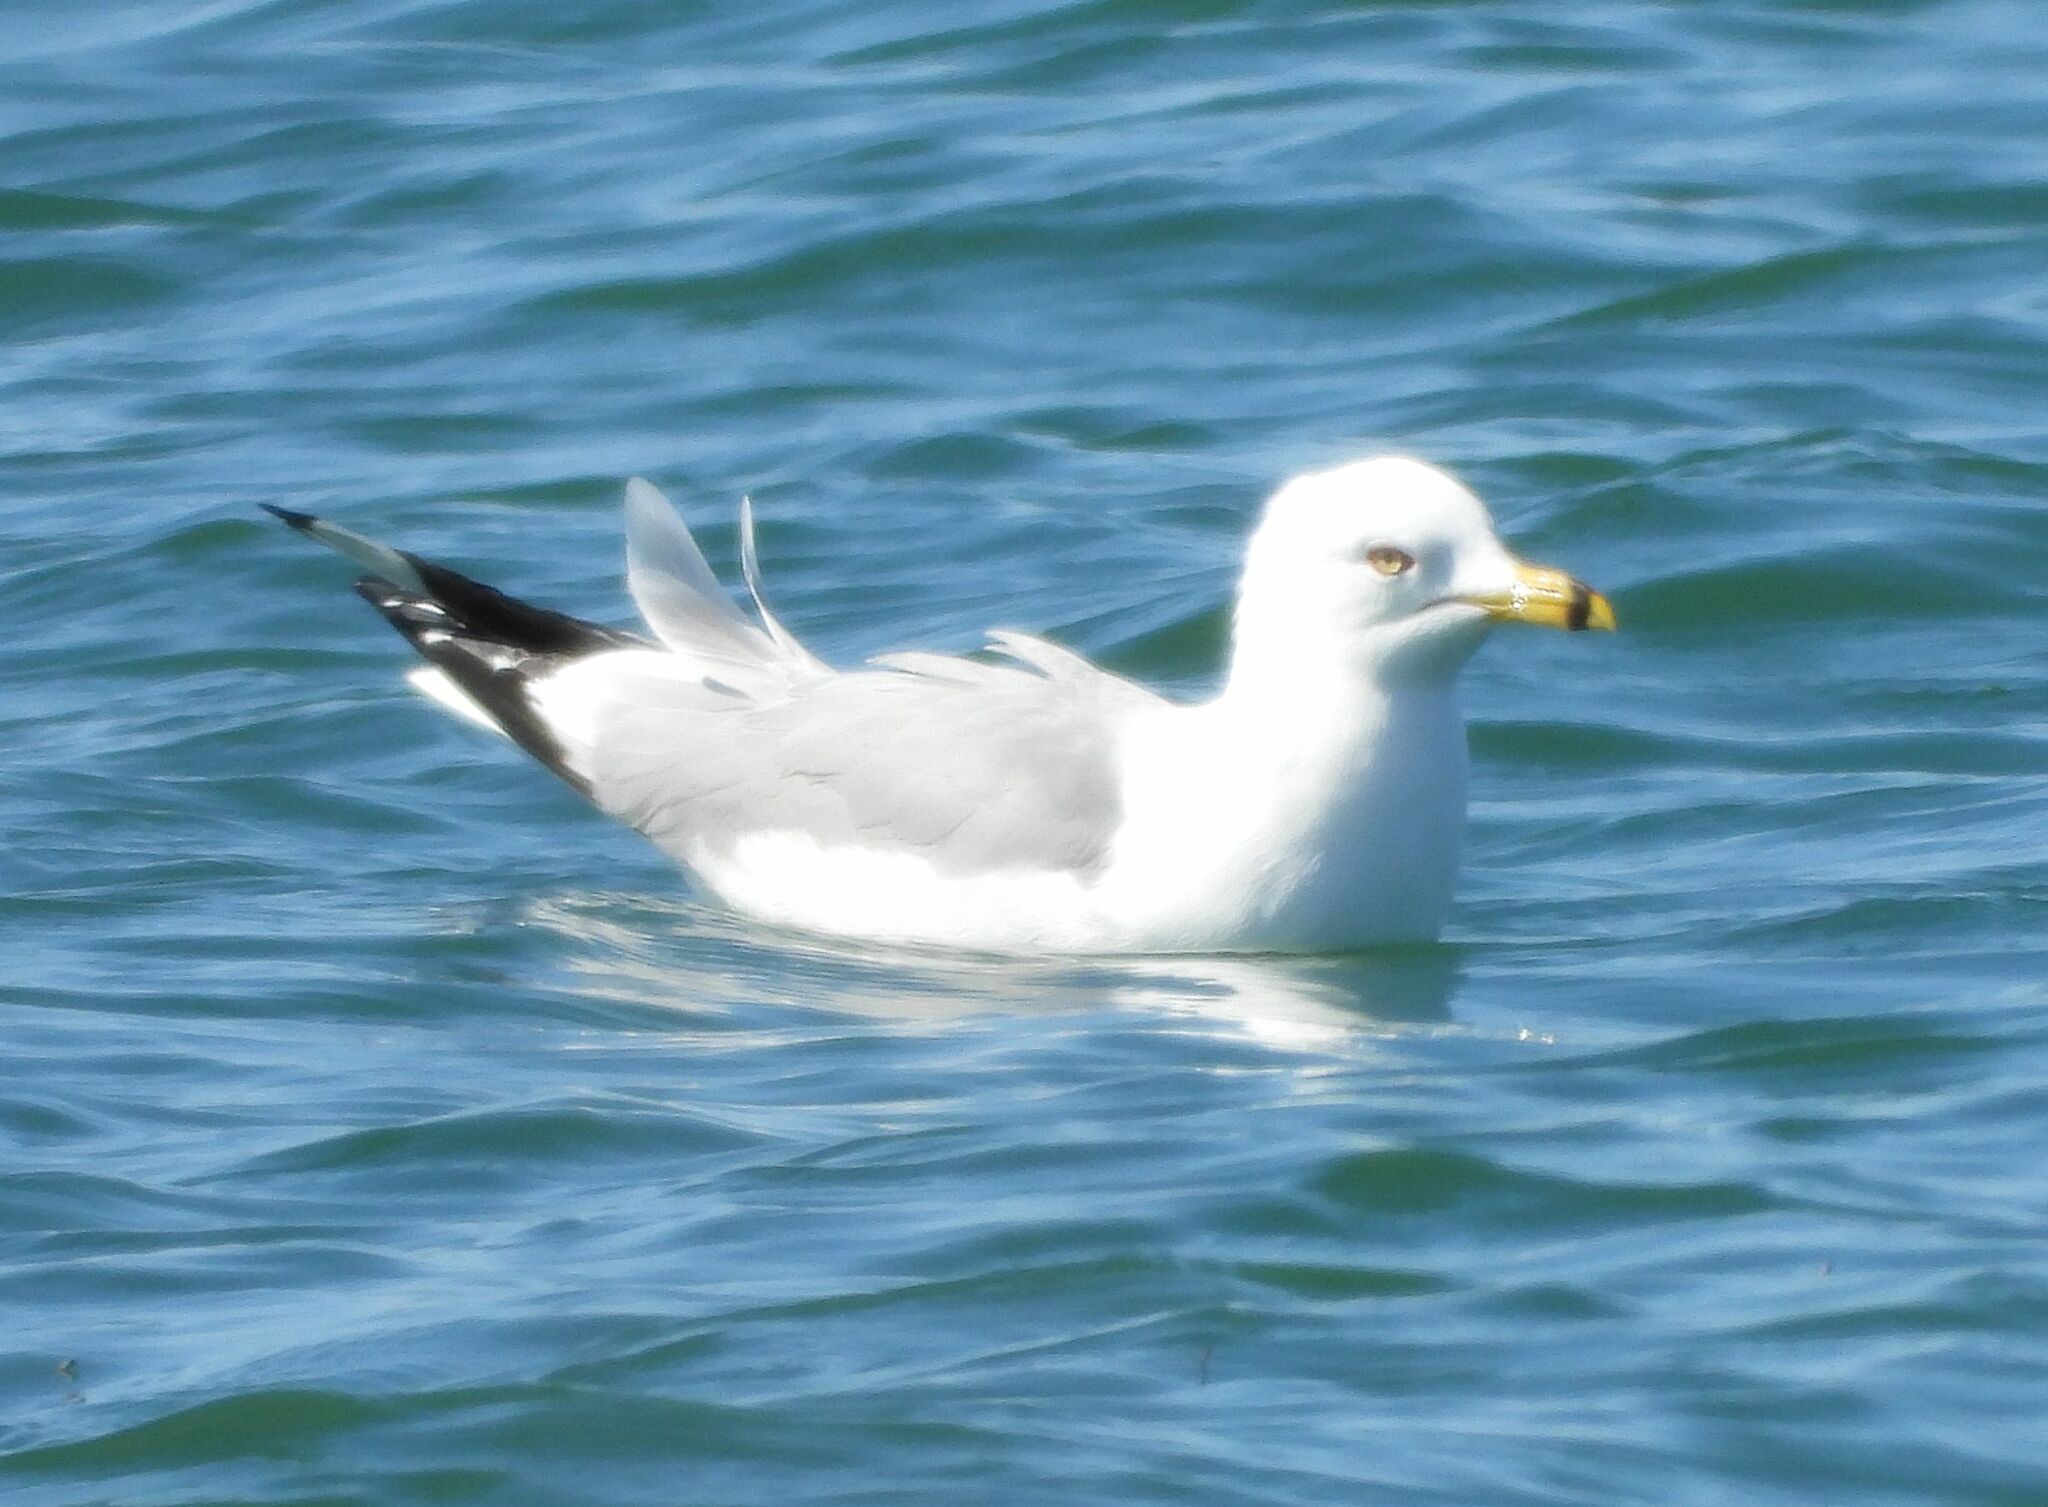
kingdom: Animalia
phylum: Chordata
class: Aves
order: Charadriiformes
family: Laridae
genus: Larus
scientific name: Larus delawarensis
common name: Ring-billed gull
